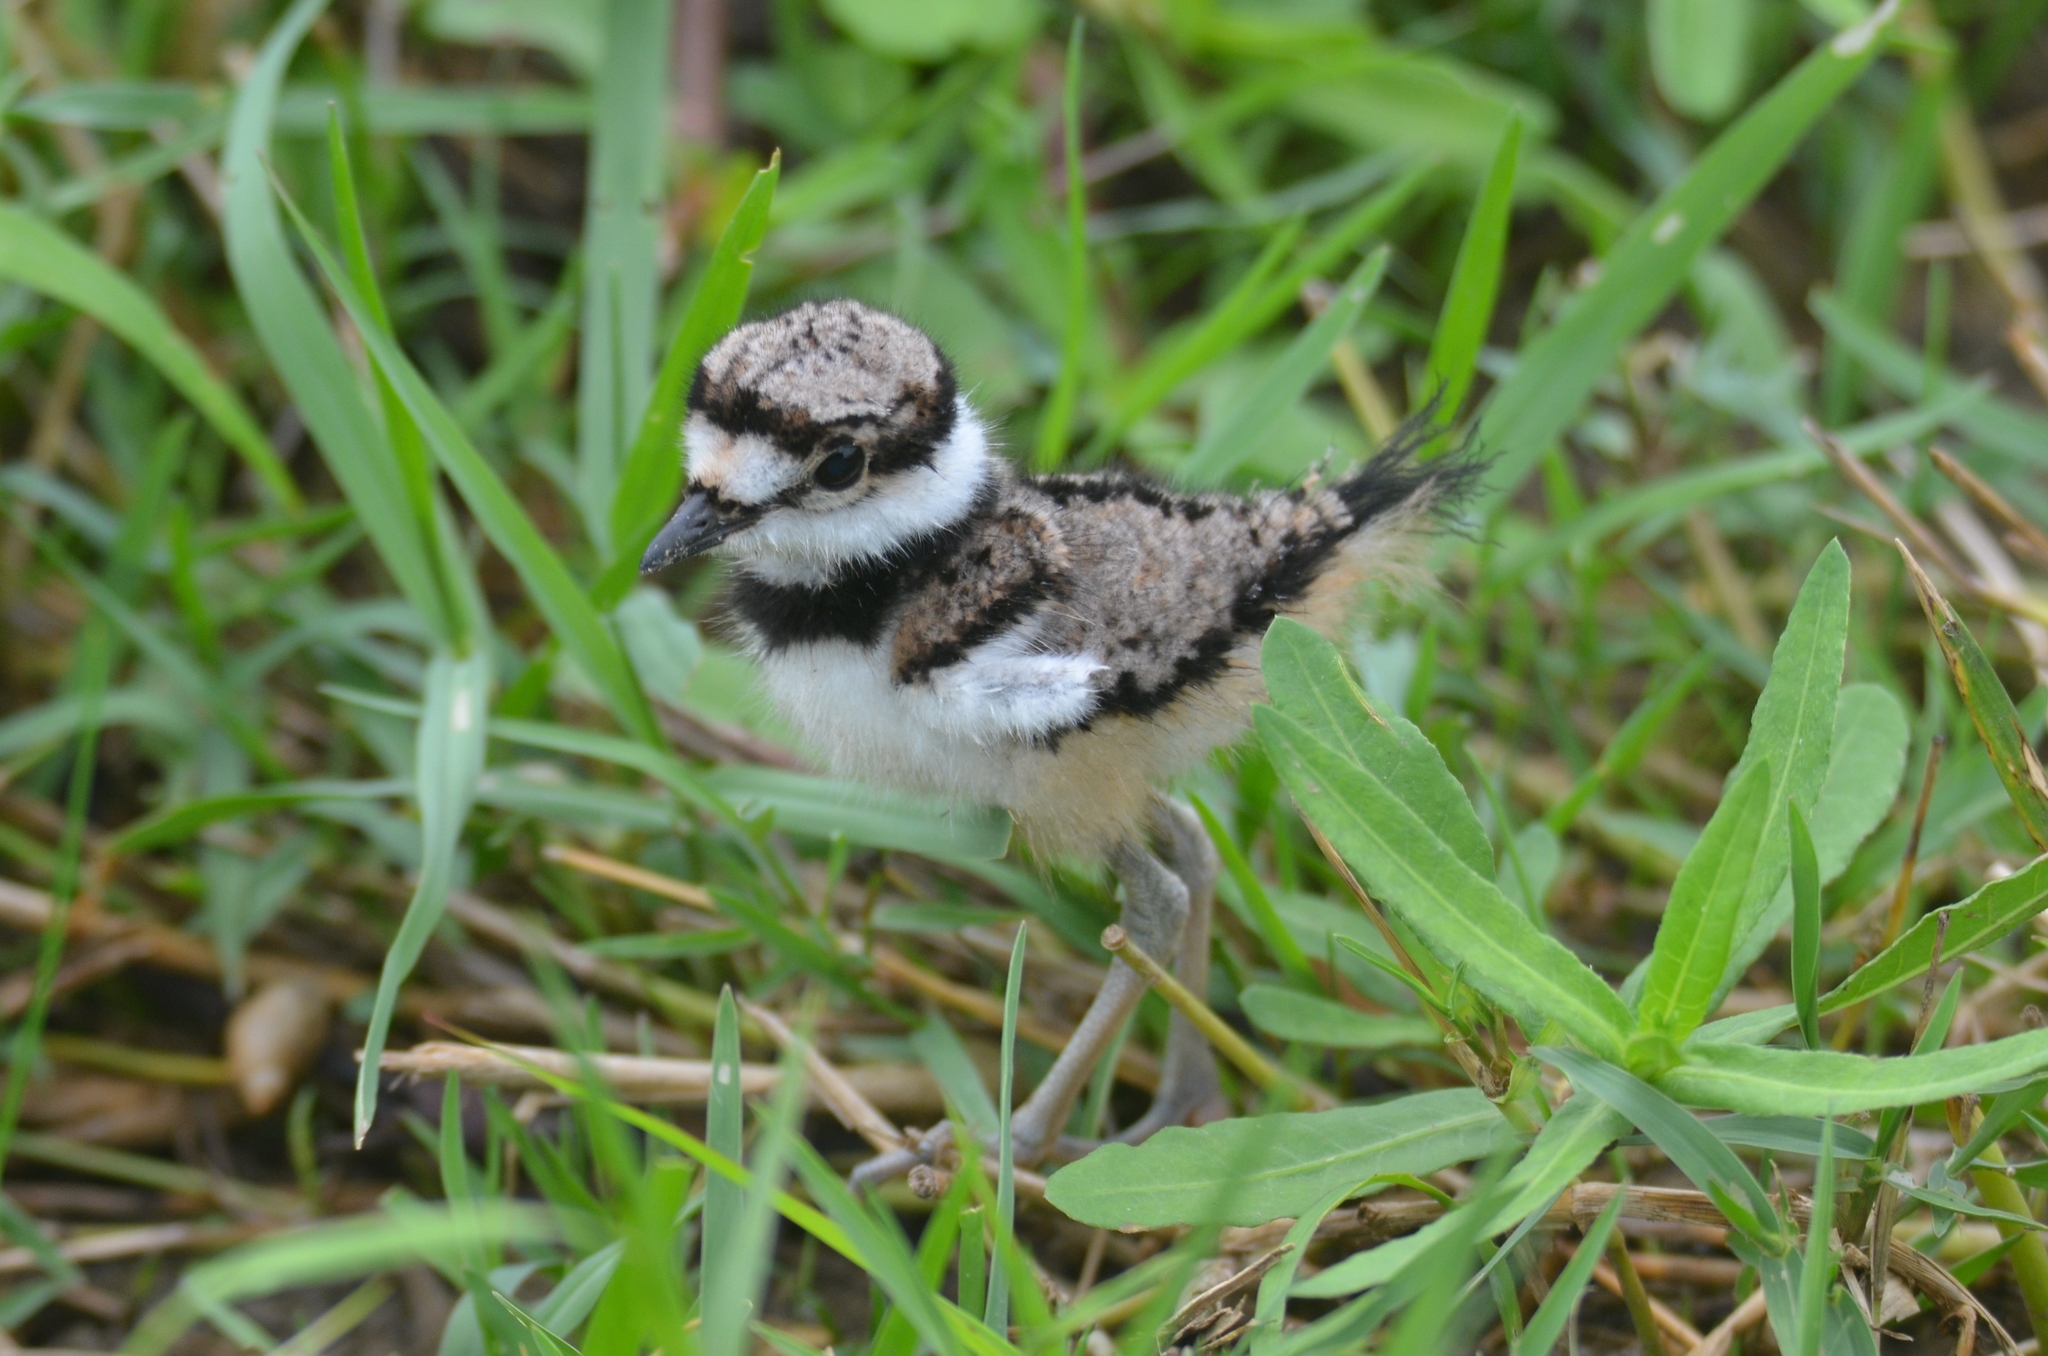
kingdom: Animalia
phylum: Chordata
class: Aves
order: Charadriiformes
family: Charadriidae
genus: Charadrius
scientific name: Charadrius vociferus
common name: Killdeer
